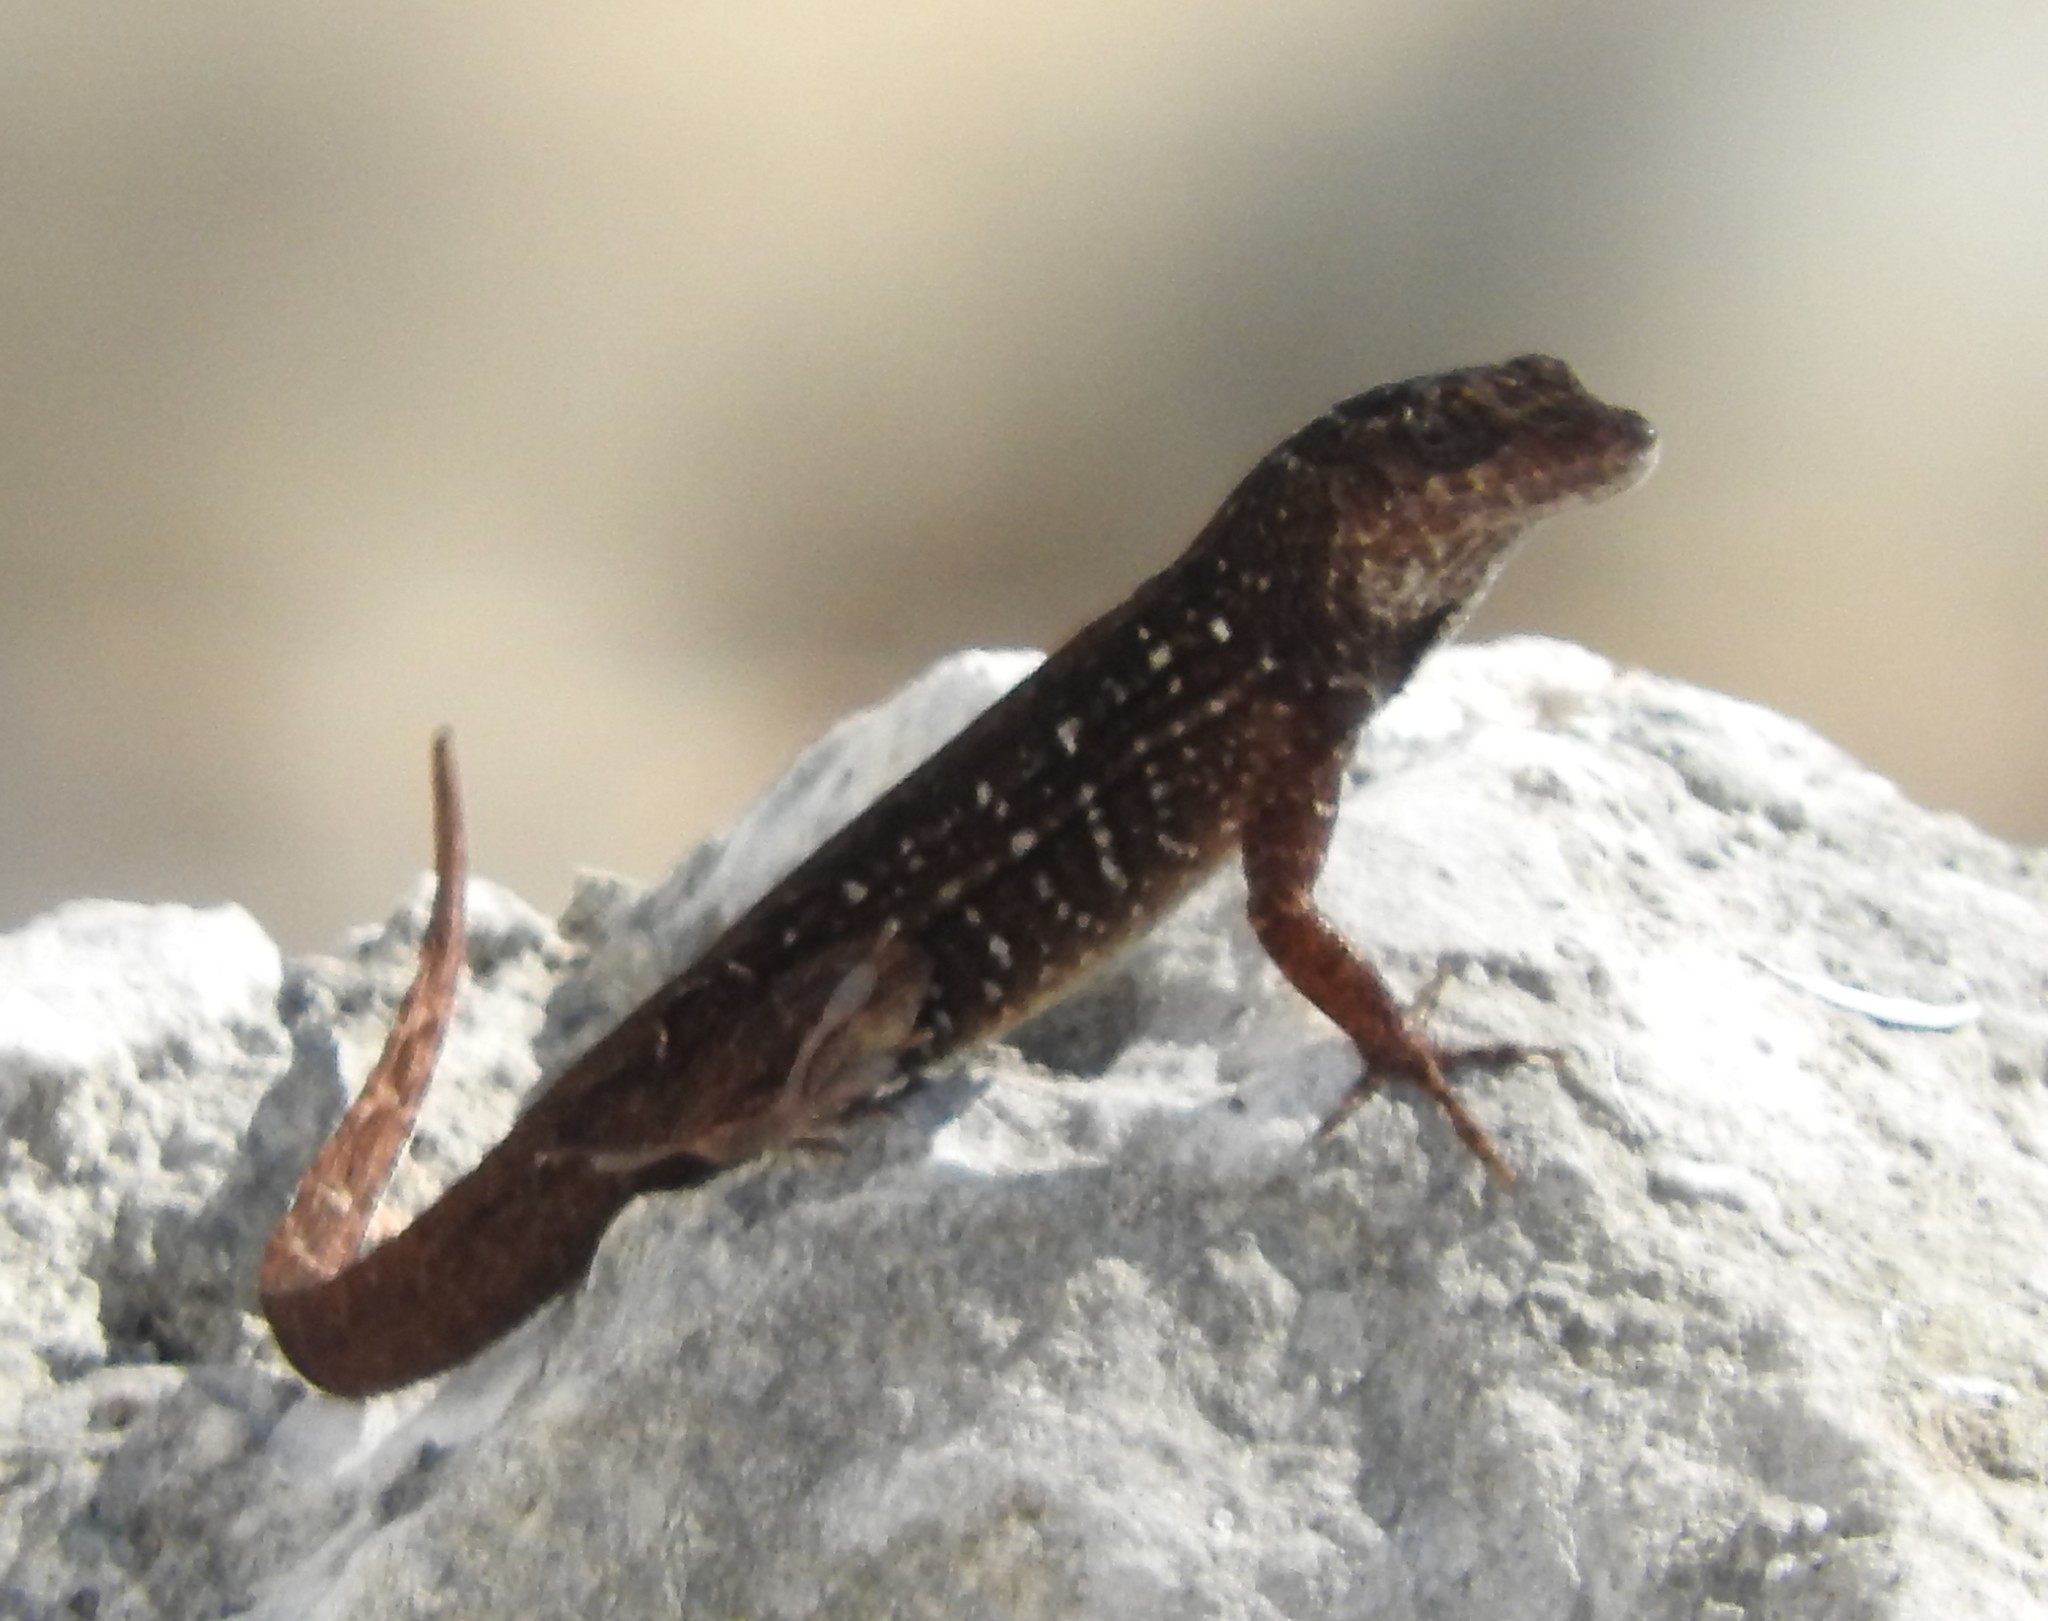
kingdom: Animalia
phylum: Chordata
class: Squamata
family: Dactyloidae
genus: Anolis
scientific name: Anolis sagrei
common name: Brown anole
